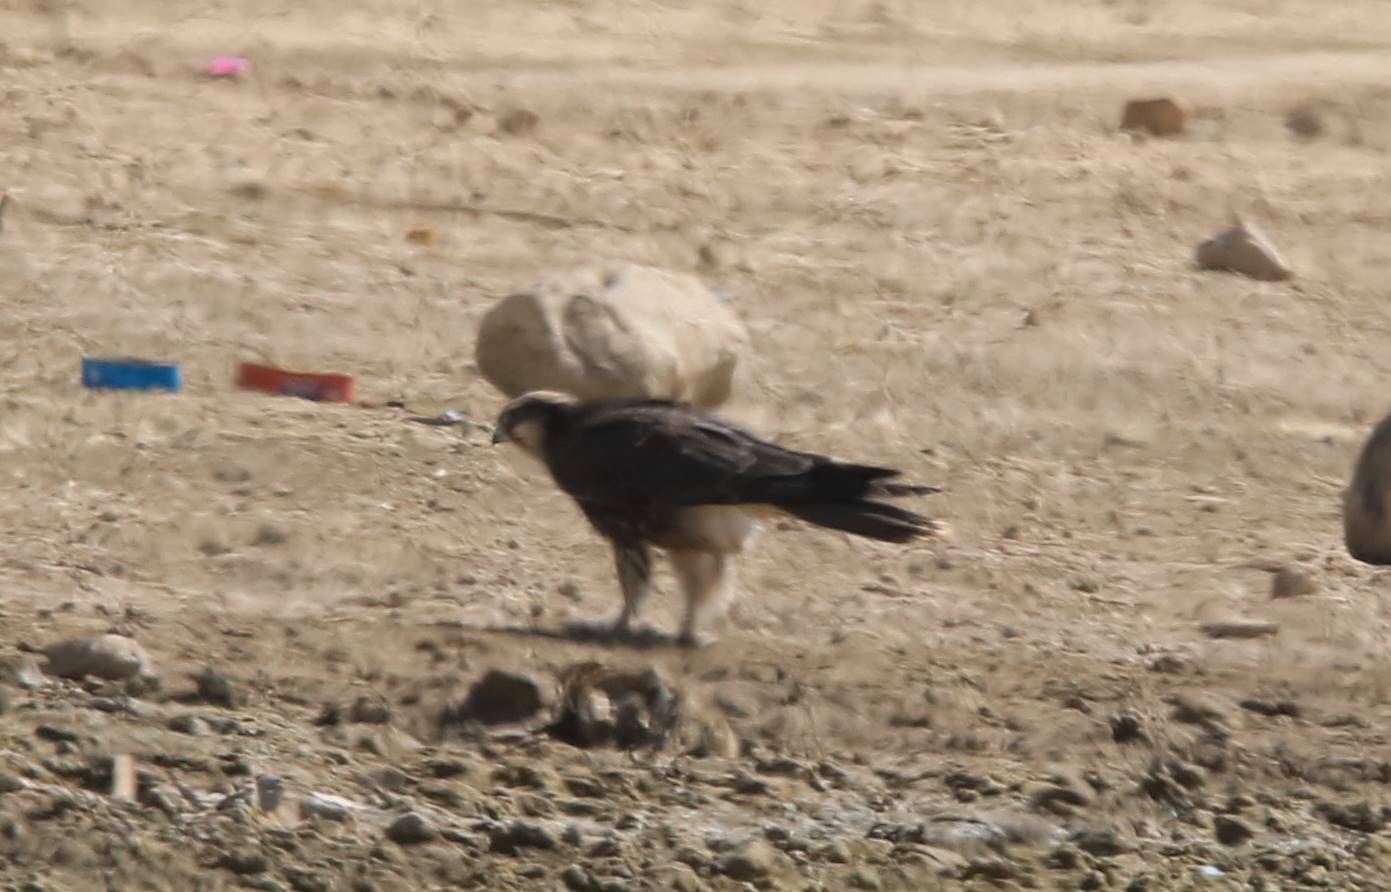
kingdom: Animalia
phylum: Chordata
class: Aves
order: Falconiformes
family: Falconidae
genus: Falco
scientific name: Falco biarmicus
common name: Lanner falcon
